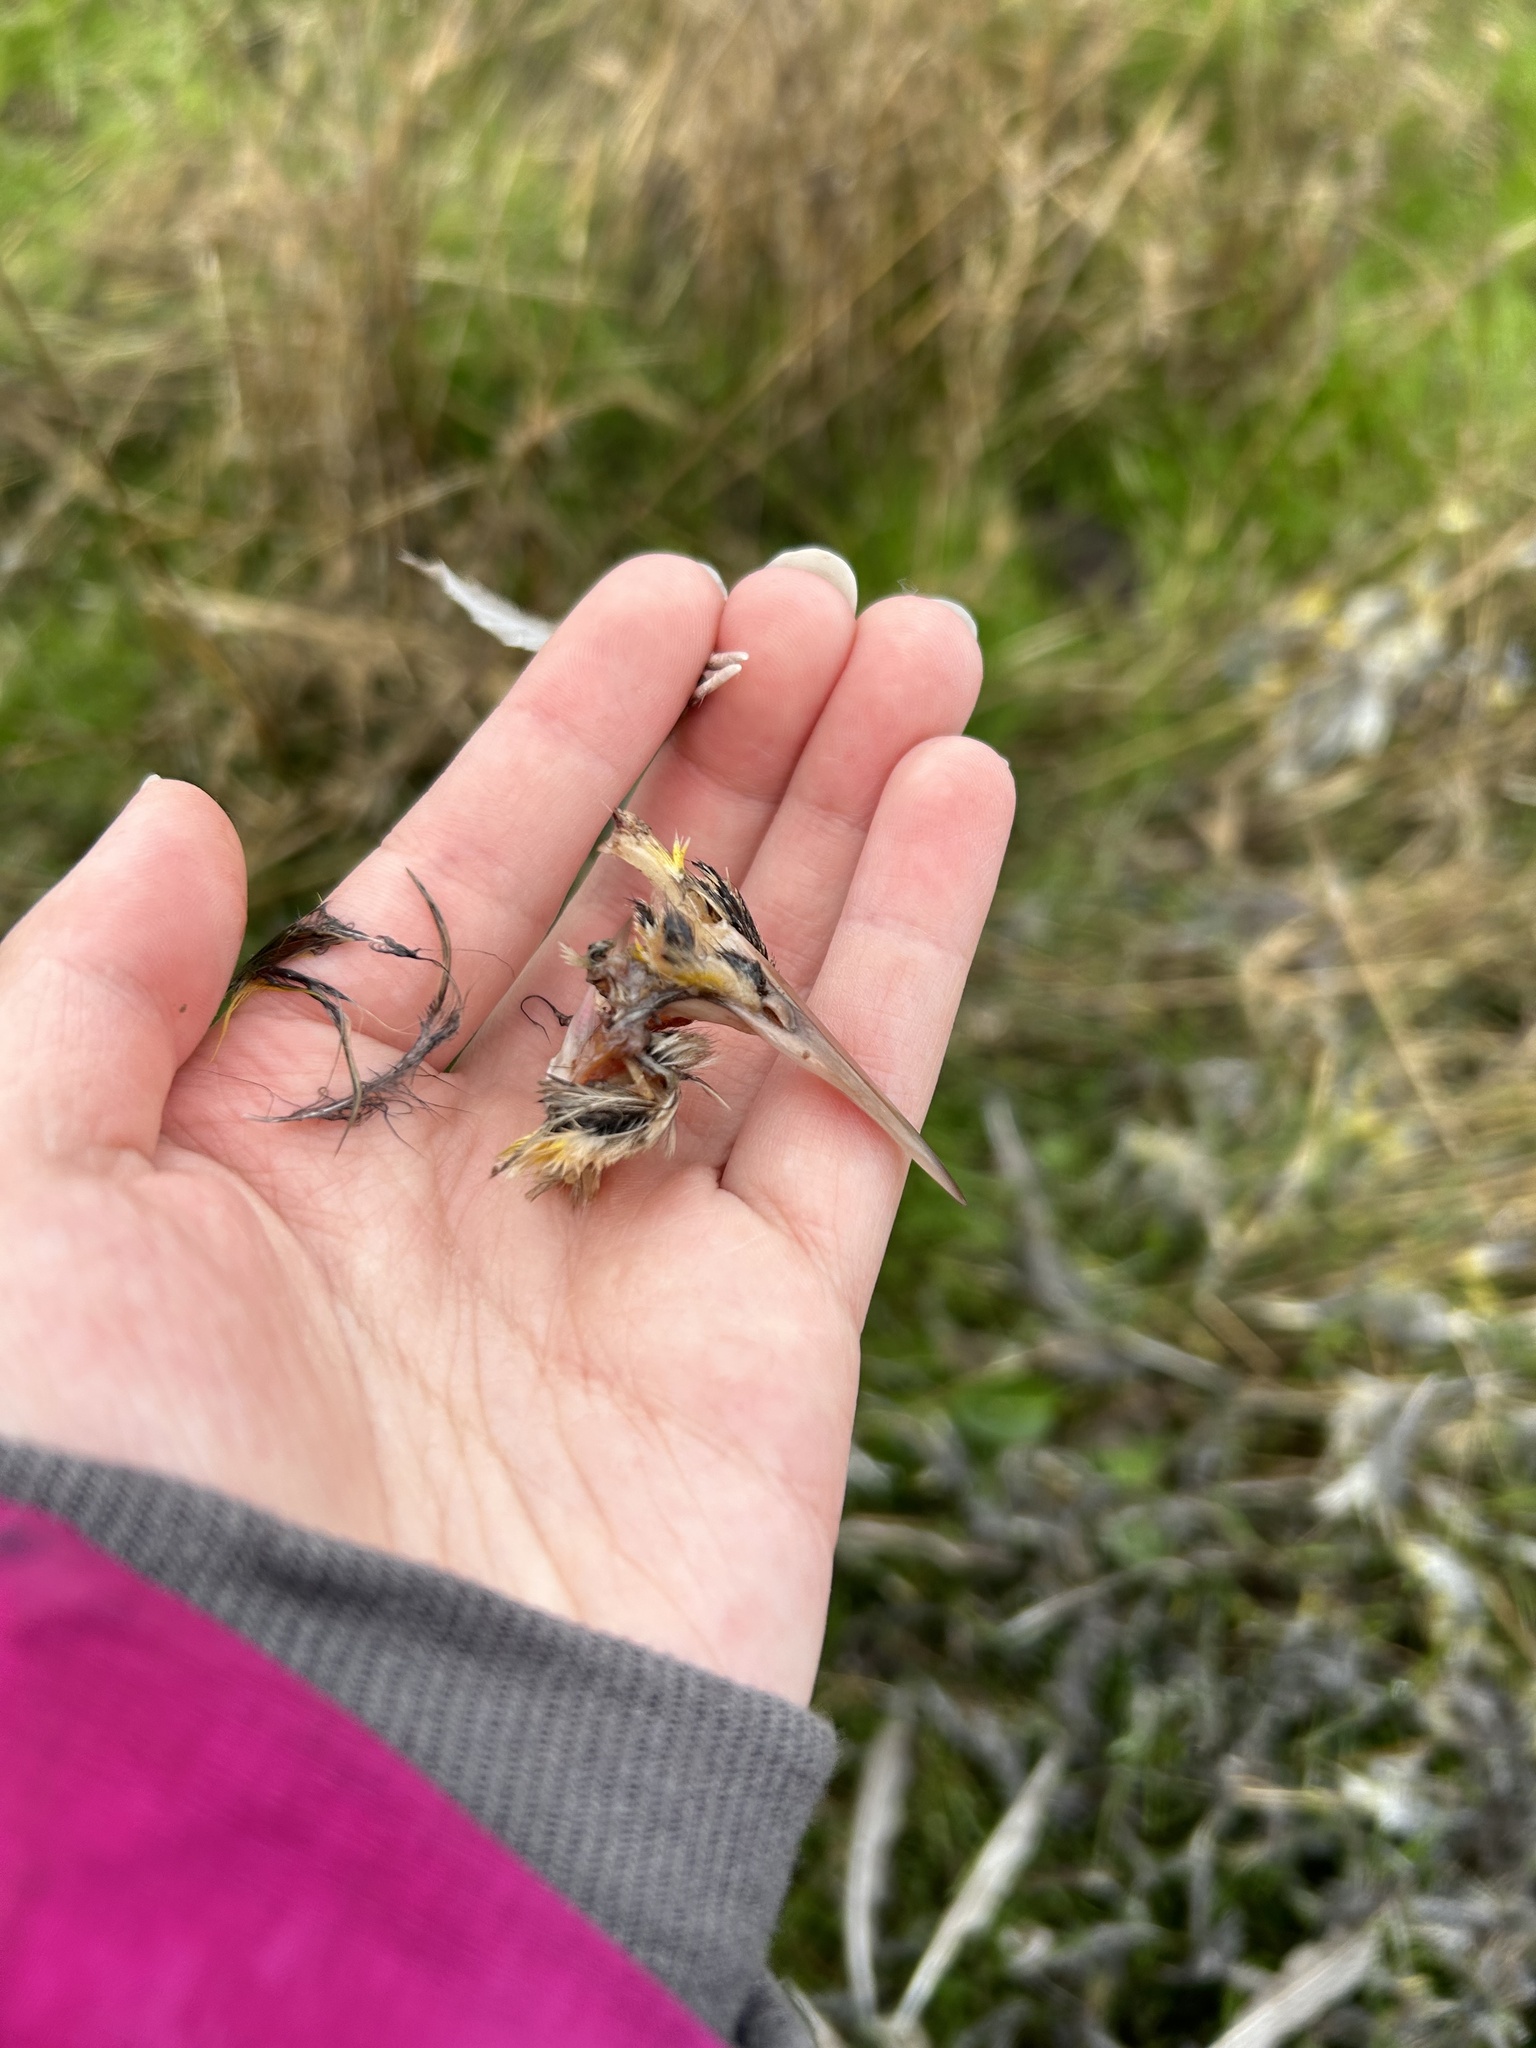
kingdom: Animalia
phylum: Chordata
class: Aves
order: Passeriformes
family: Icteridae
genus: Sturnella
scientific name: Sturnella neglecta
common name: Western meadowlark
